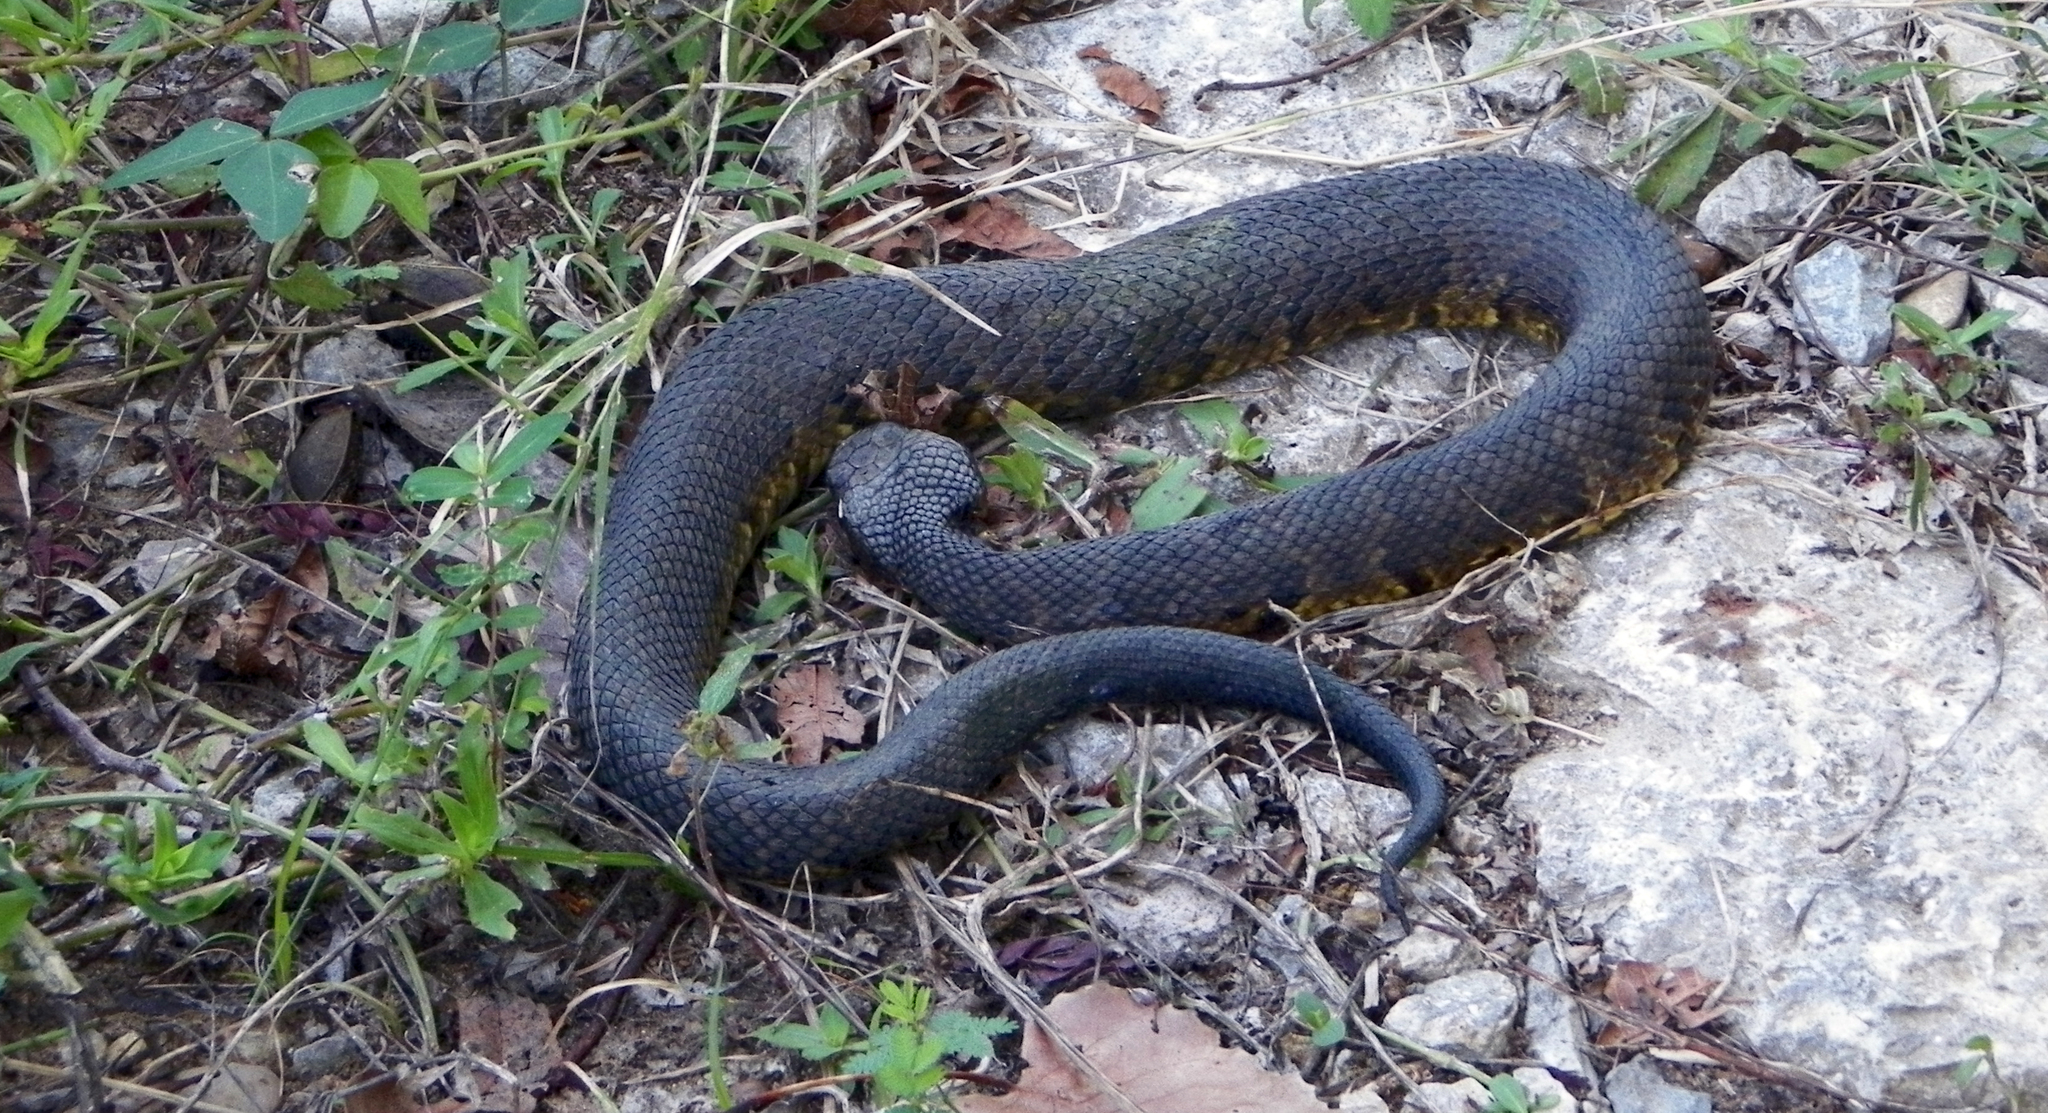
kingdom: Animalia
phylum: Chordata
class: Squamata
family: Viperidae
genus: Agkistrodon
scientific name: Agkistrodon piscivorus
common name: Cottonmouth
